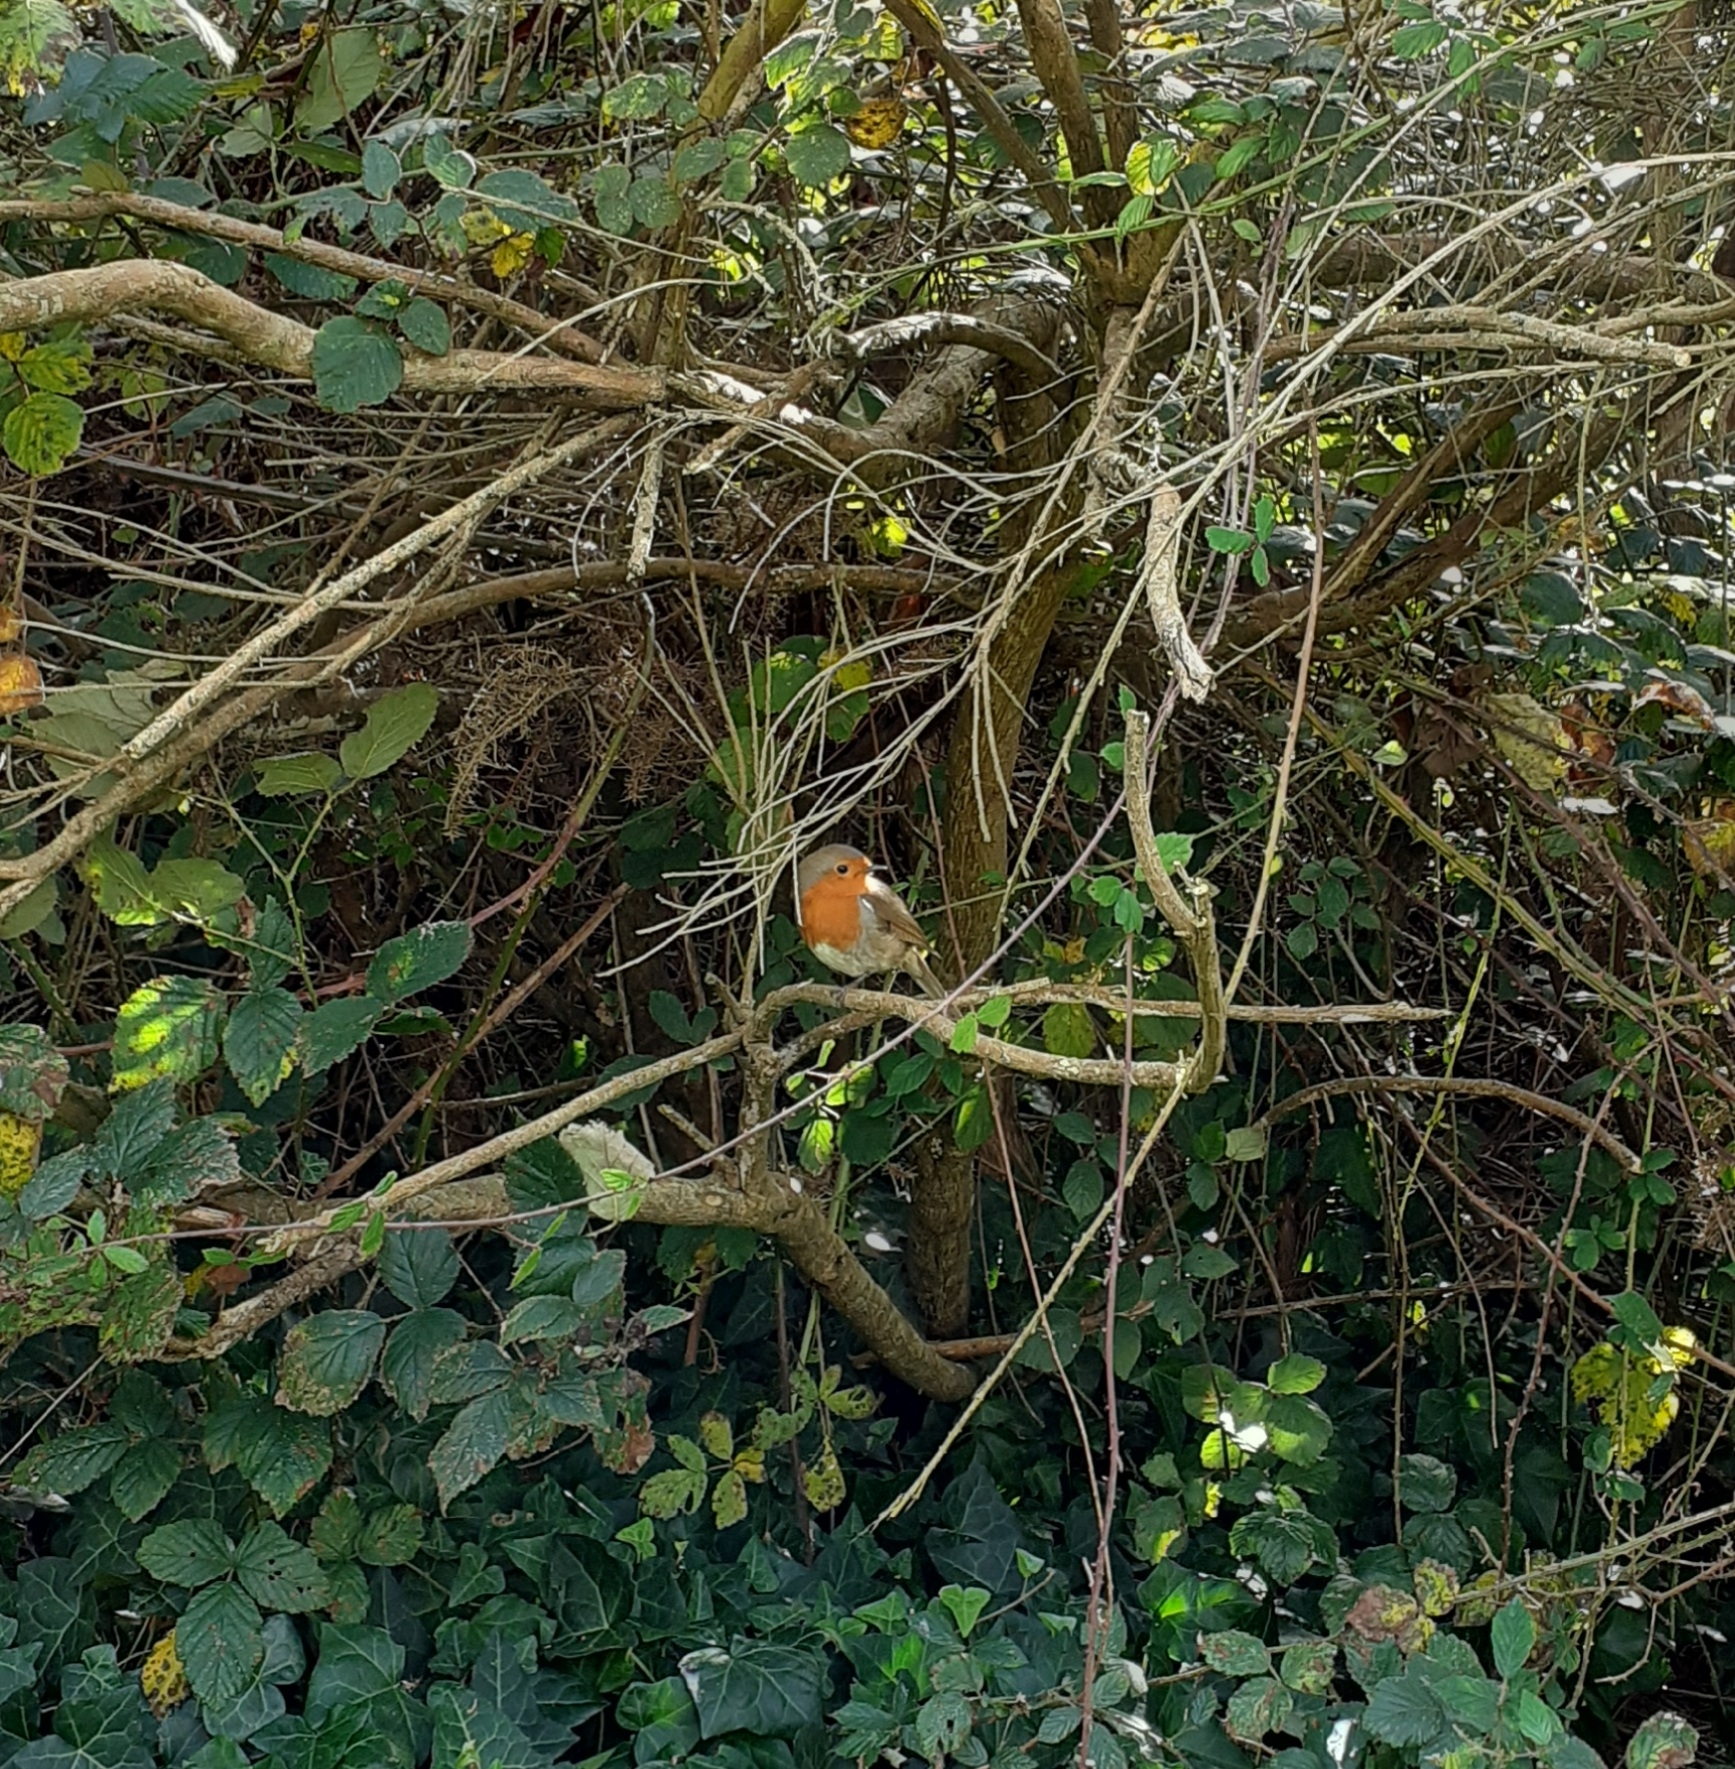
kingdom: Animalia
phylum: Chordata
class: Aves
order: Passeriformes
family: Muscicapidae
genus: Erithacus
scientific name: Erithacus rubecula
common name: European robin
